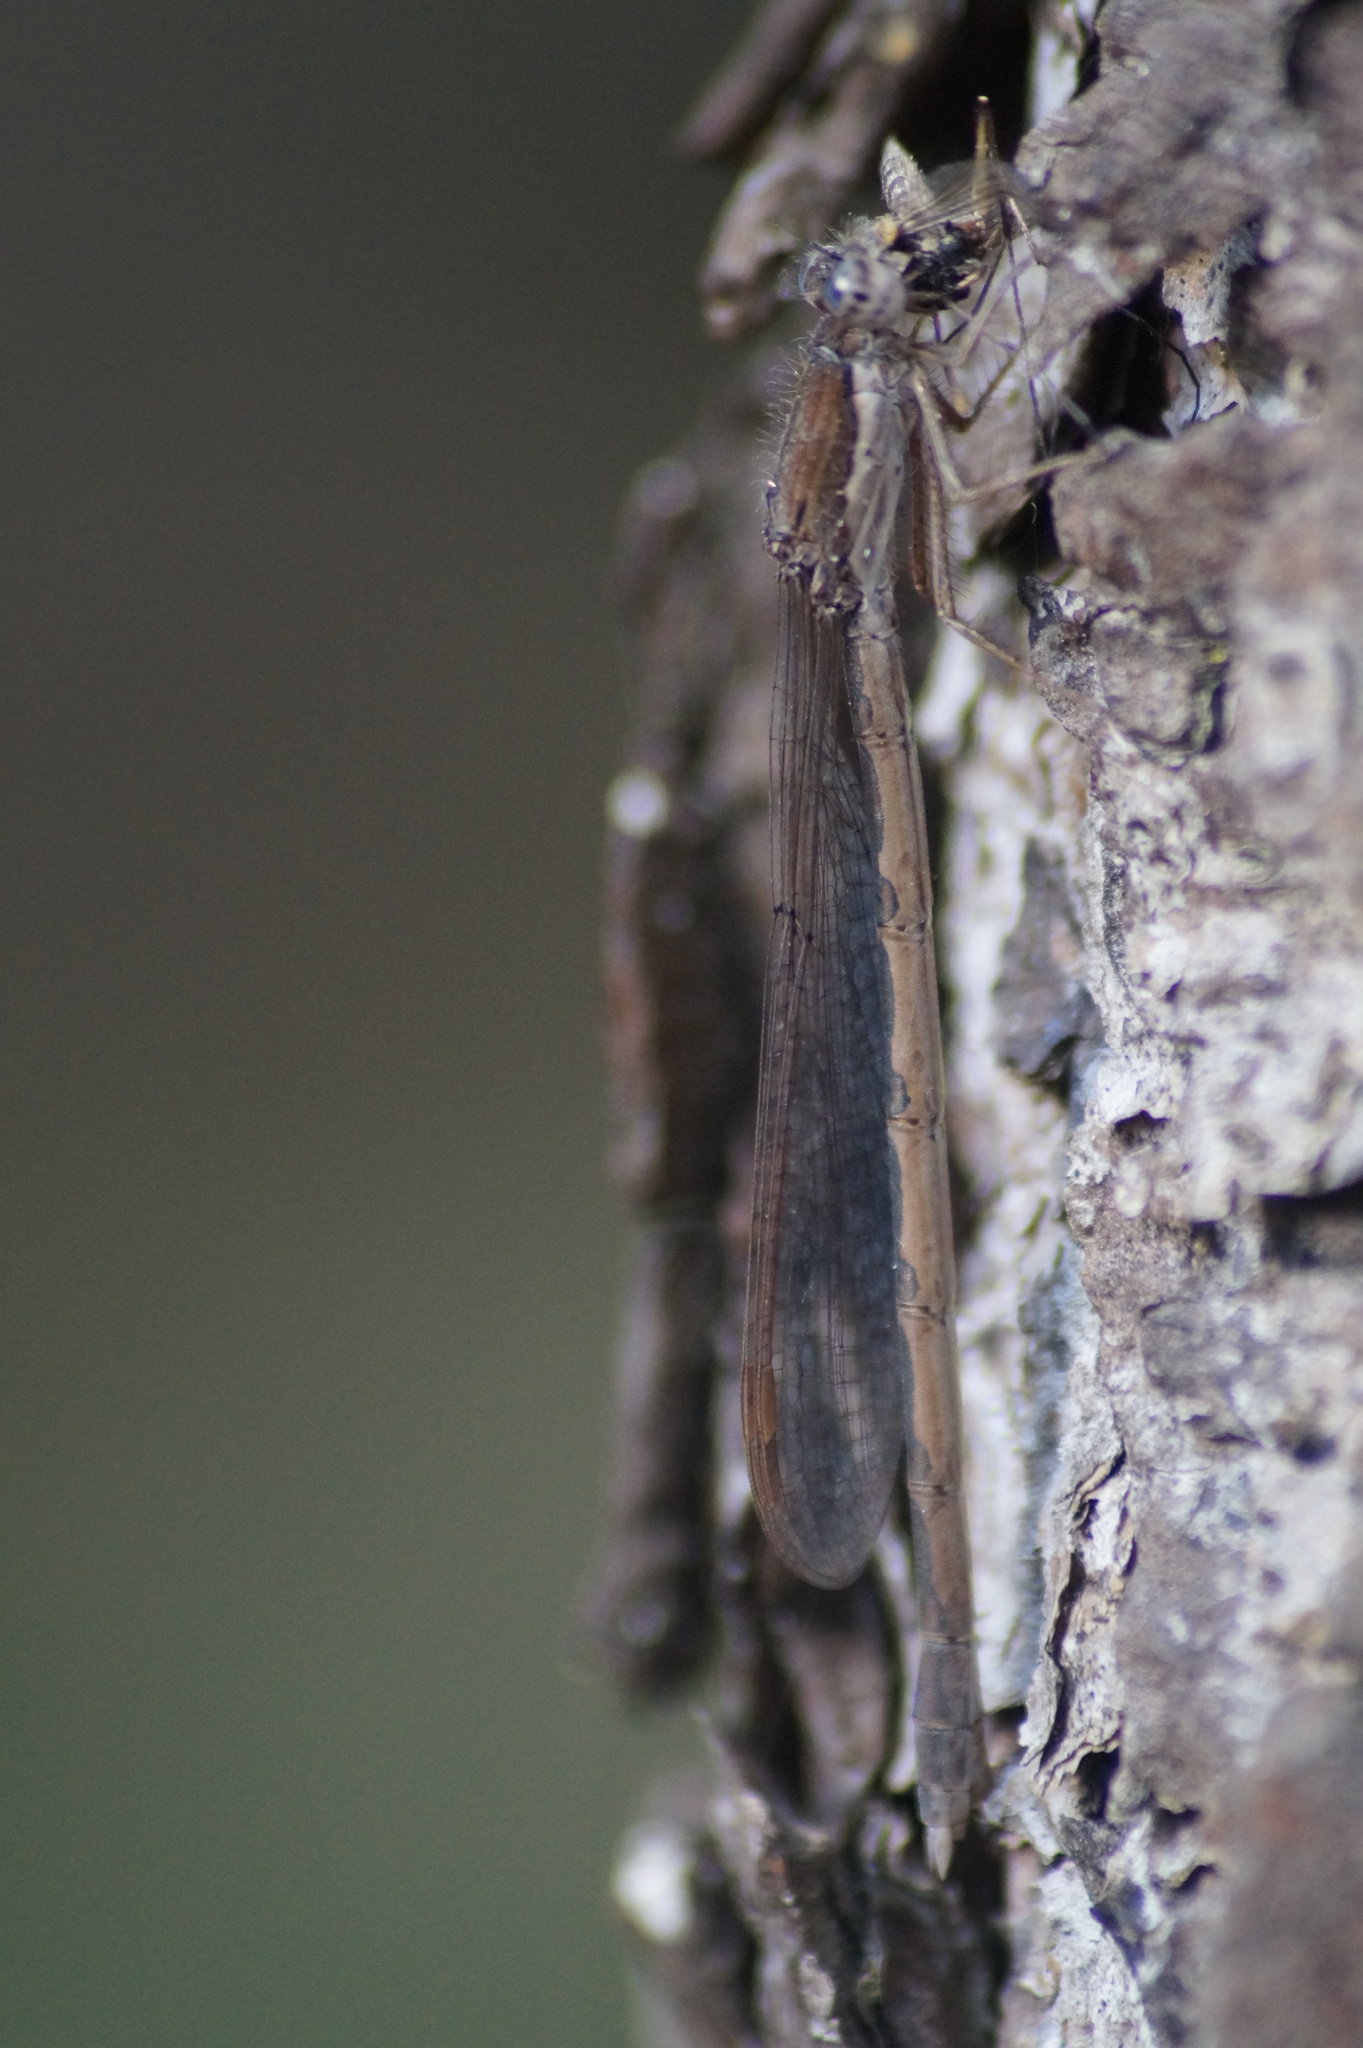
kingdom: Animalia
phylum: Arthropoda
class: Insecta
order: Odonata
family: Lestidae
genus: Sympecma
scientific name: Sympecma fusca
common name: Common winter damsel
